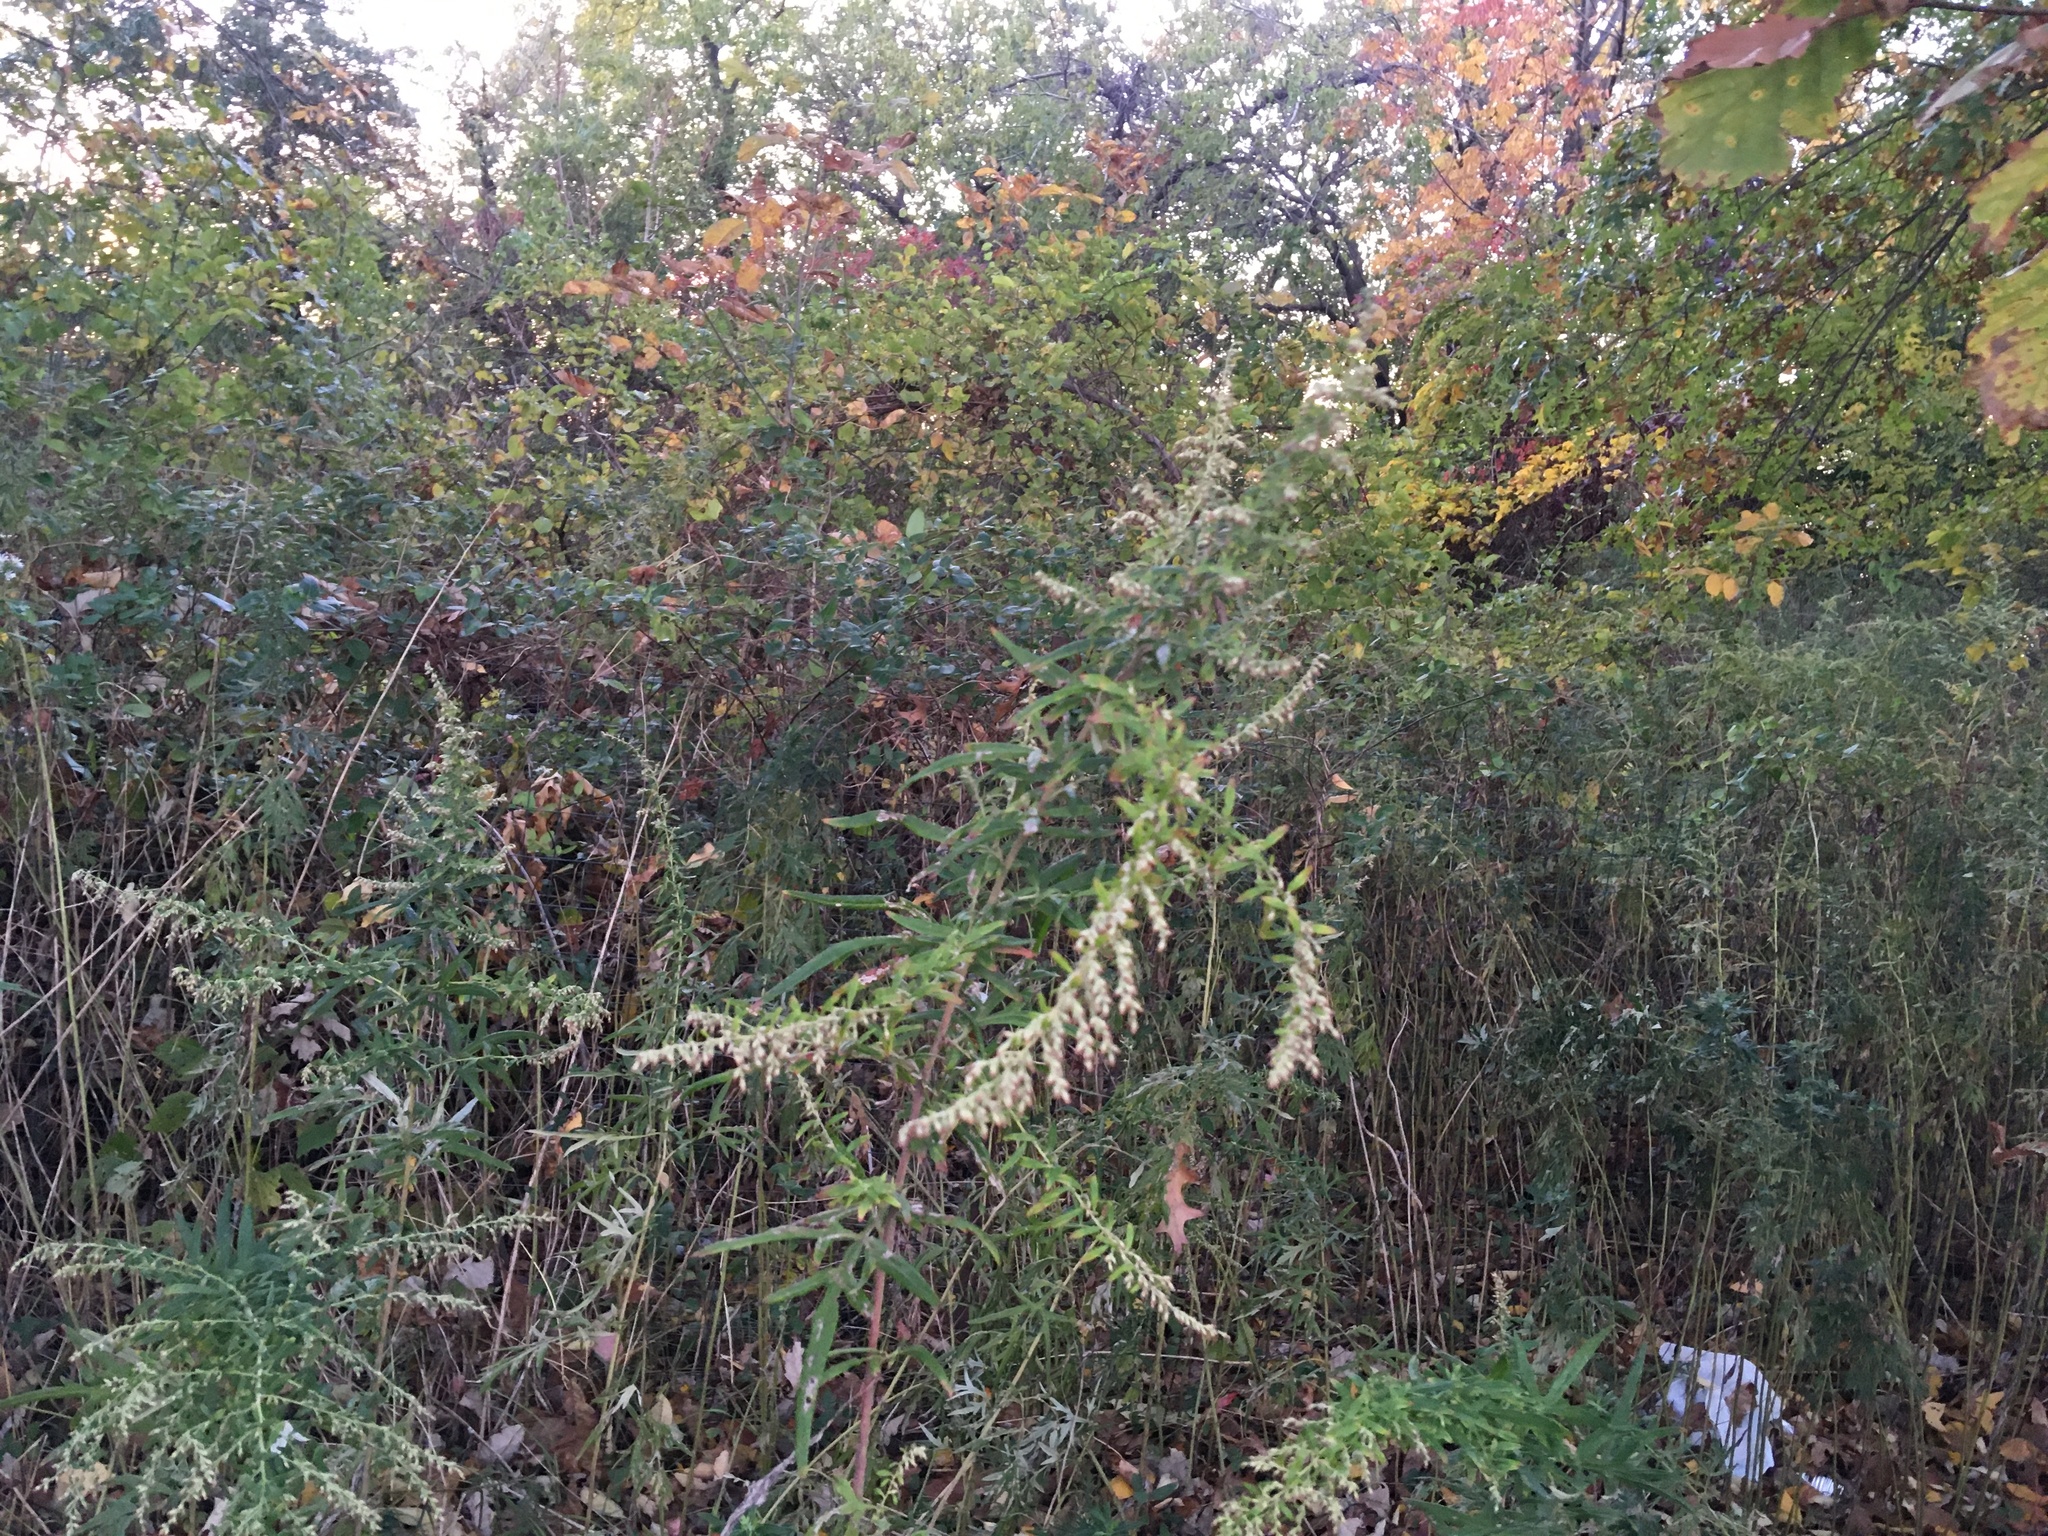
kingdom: Plantae
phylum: Tracheophyta
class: Magnoliopsida
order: Asterales
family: Asteraceae
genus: Artemisia
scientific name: Artemisia vulgaris
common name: Mugwort
